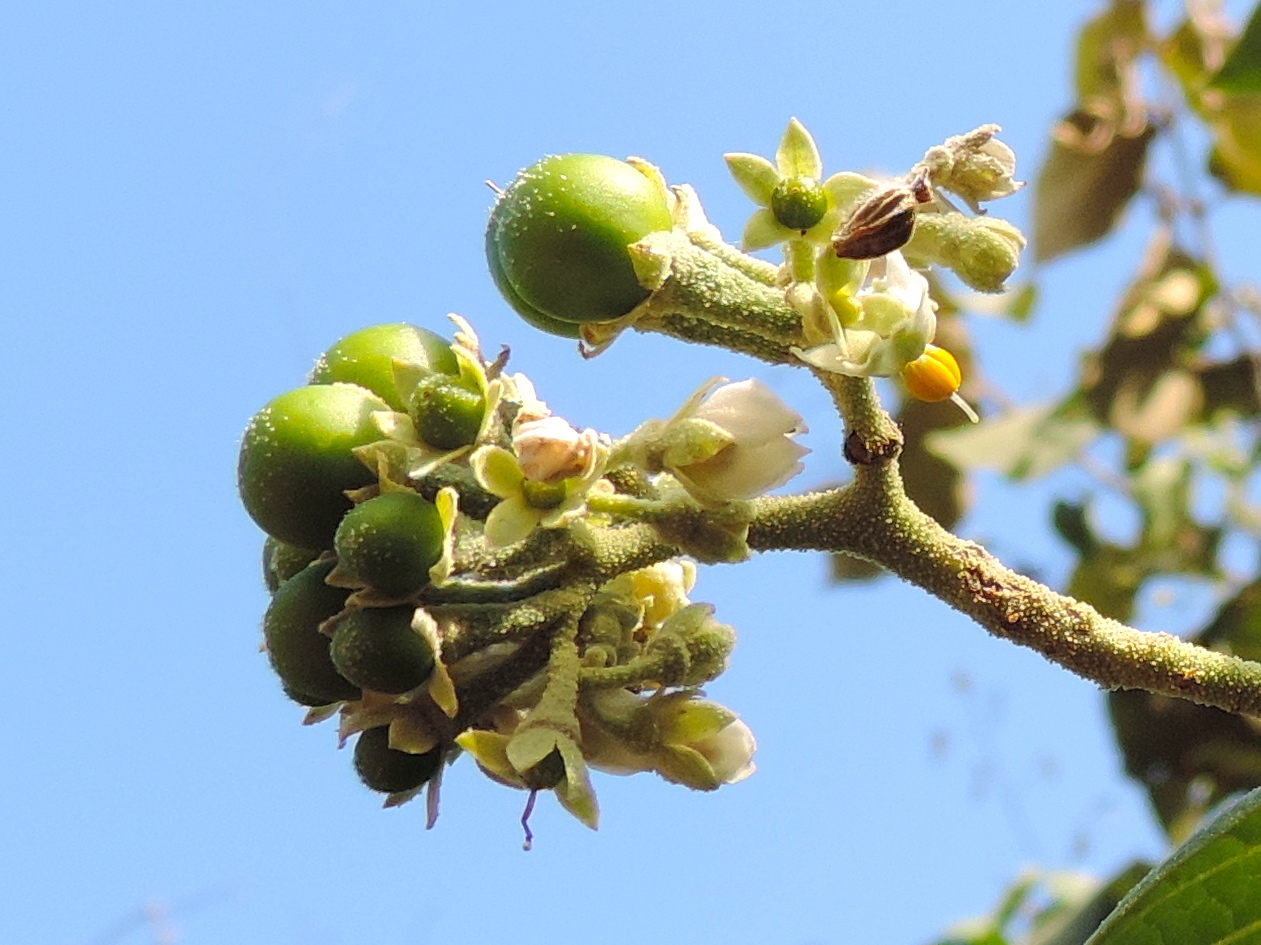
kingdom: Plantae
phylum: Tracheophyta
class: Magnoliopsida
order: Solanales
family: Solanaceae
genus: Solanum
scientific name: Solanum hazenii
